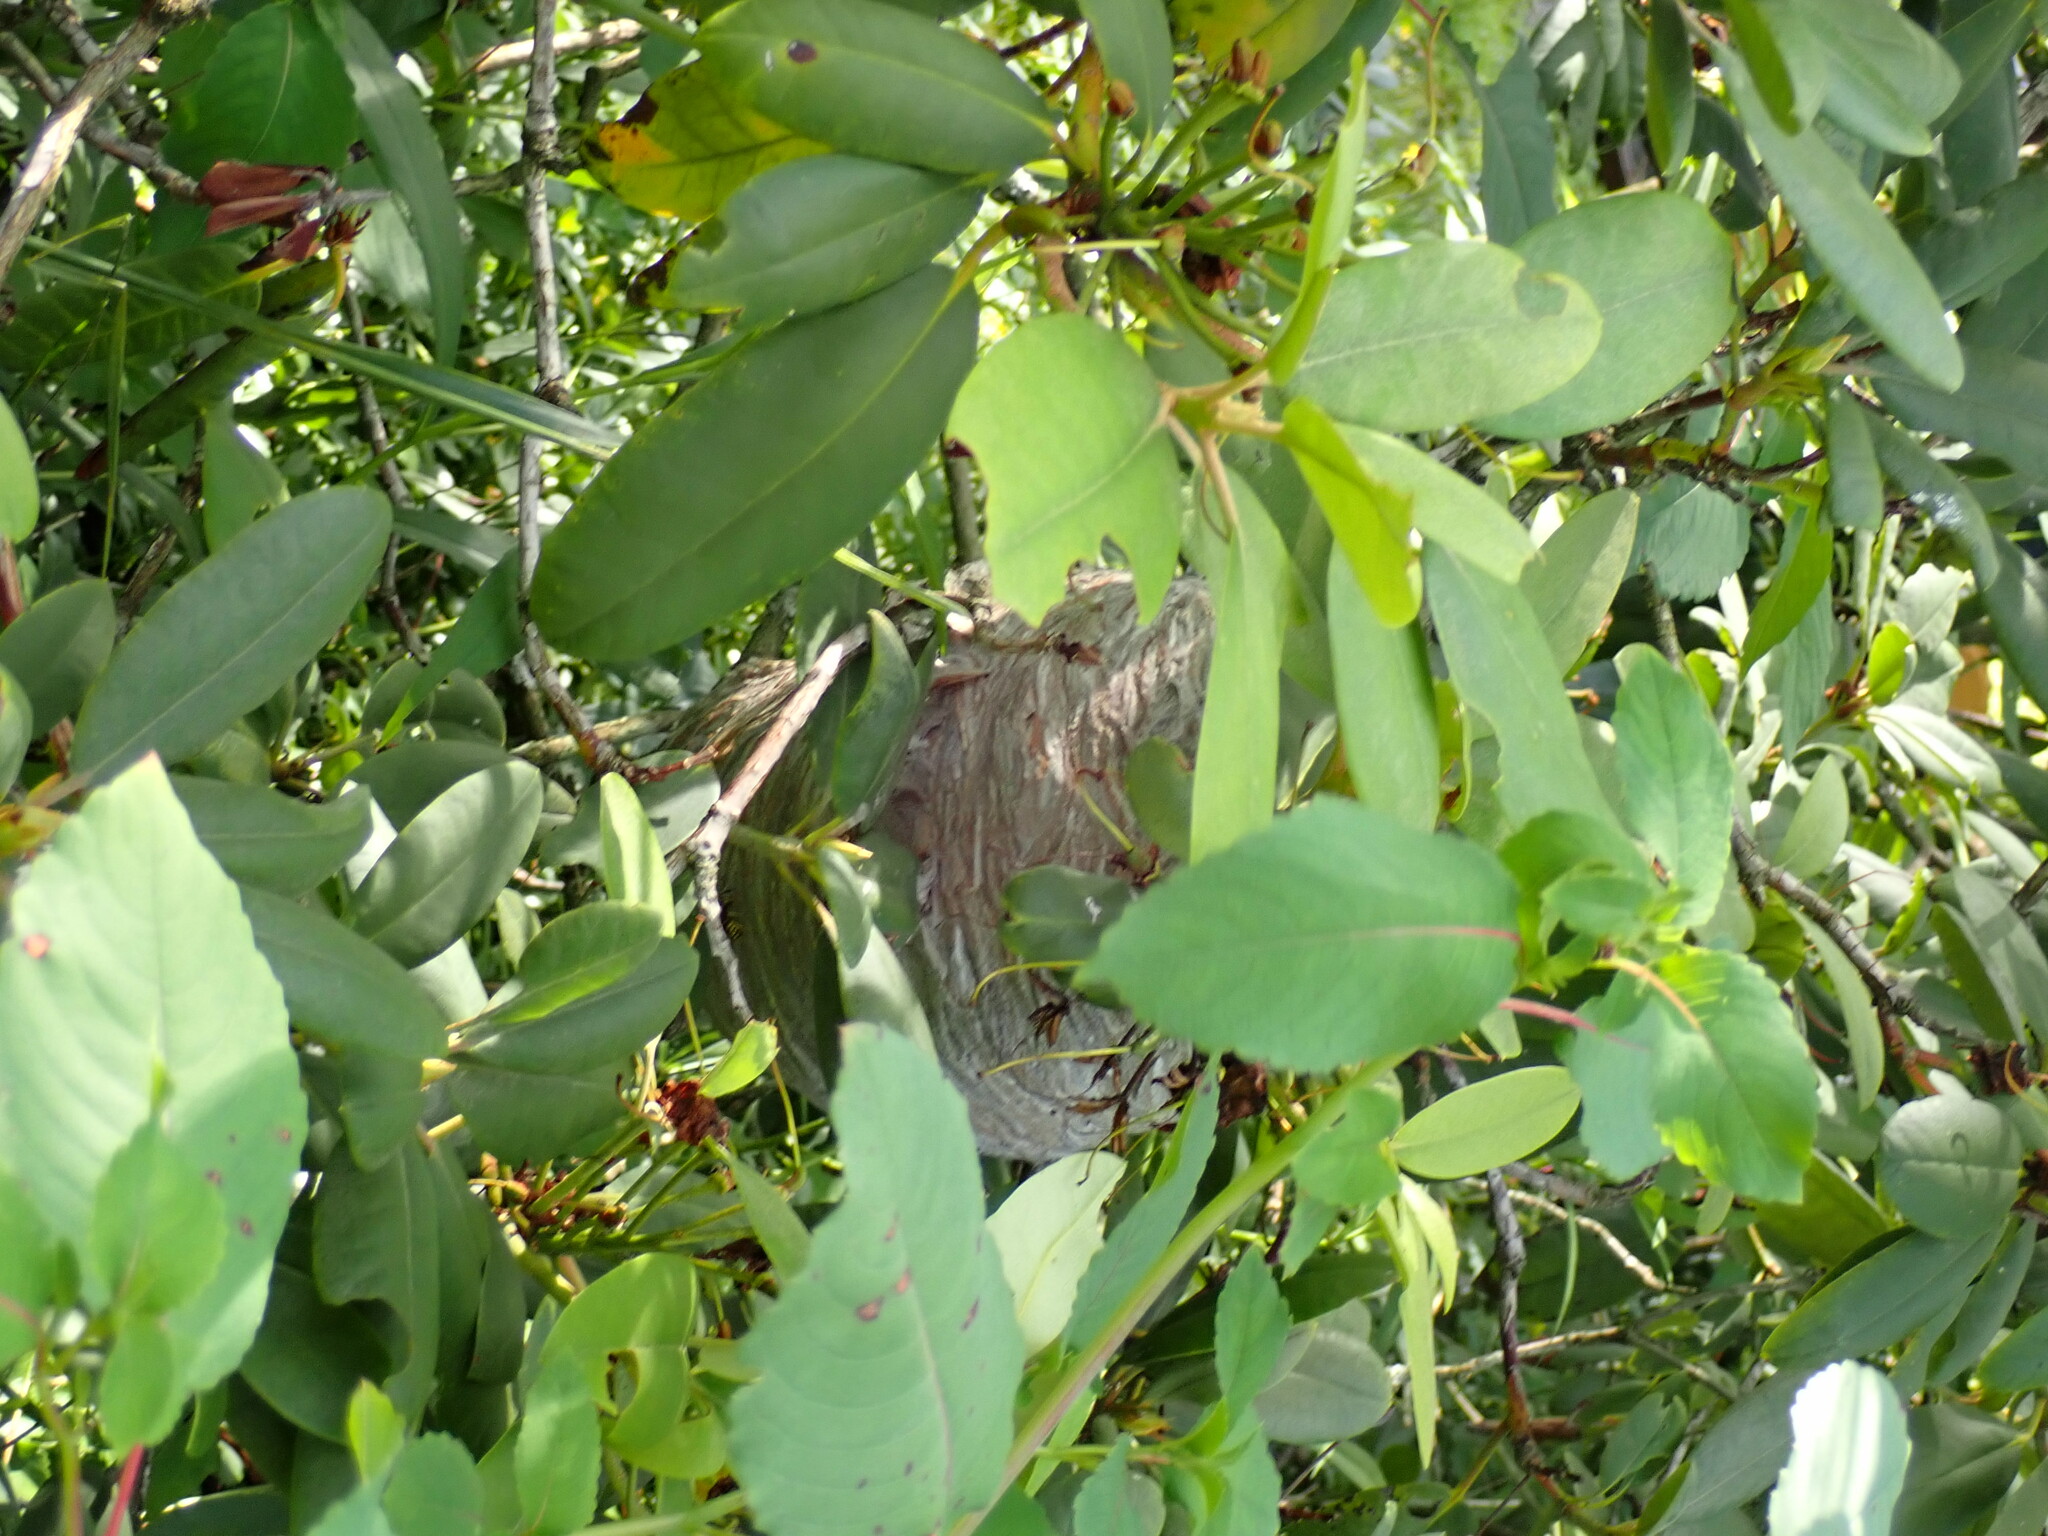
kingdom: Animalia
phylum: Arthropoda
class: Insecta
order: Hymenoptera
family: Vespidae
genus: Dolichovespula
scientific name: Dolichovespula
